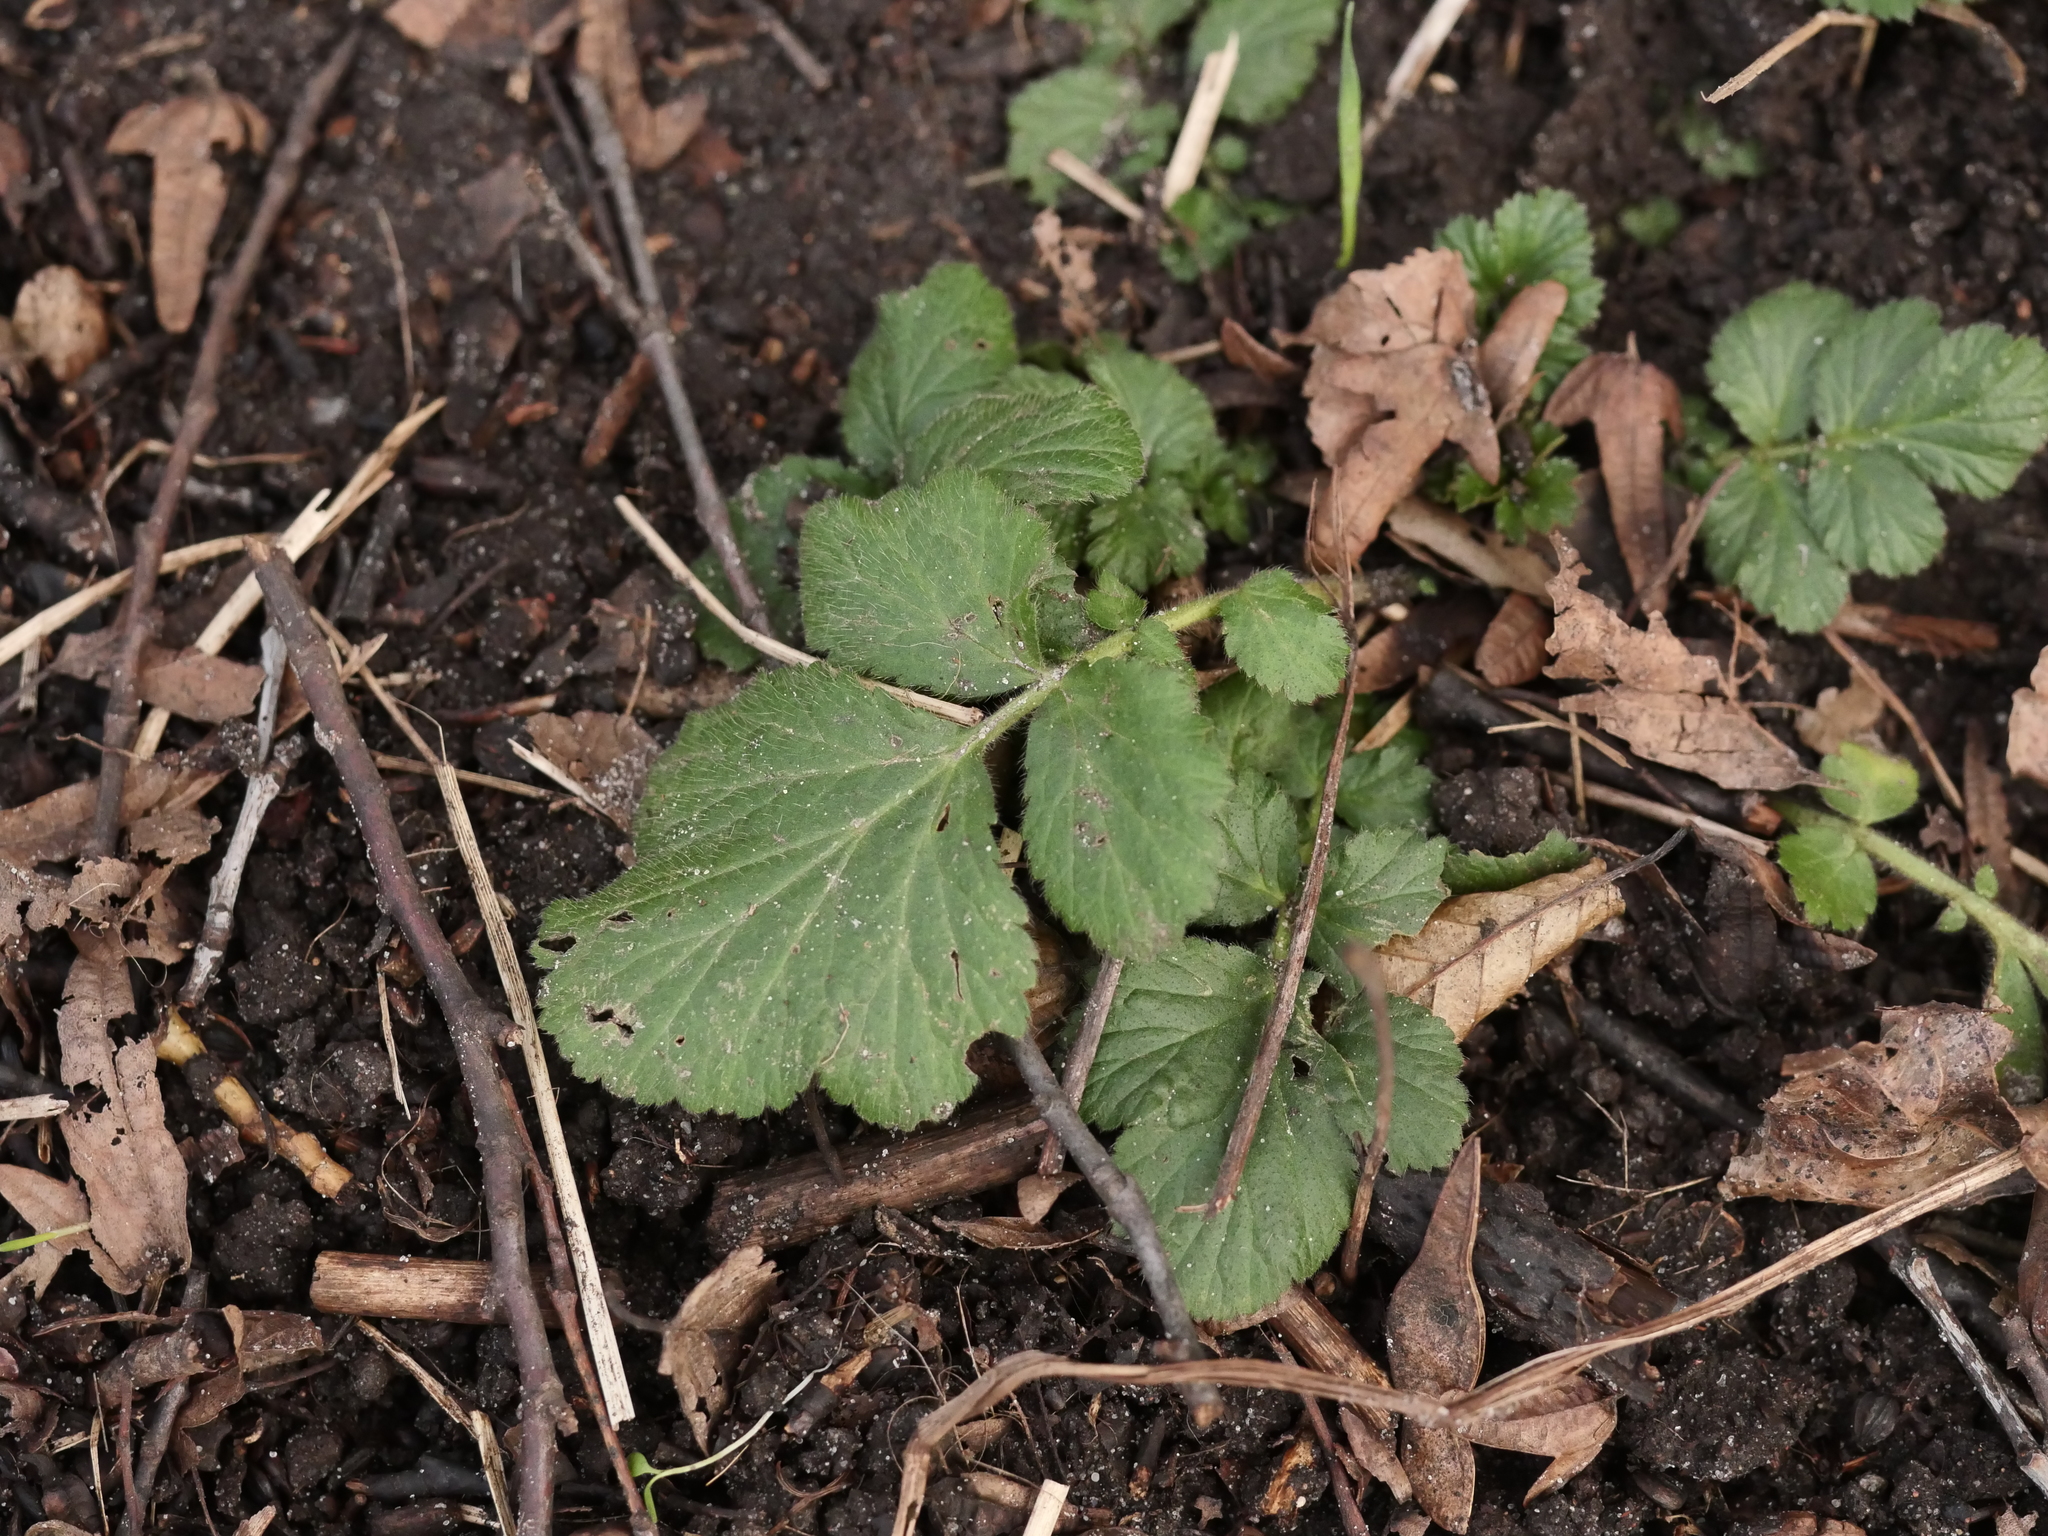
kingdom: Plantae
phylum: Tracheophyta
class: Magnoliopsida
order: Rosales
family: Rosaceae
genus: Geum
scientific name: Geum urbanum
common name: Wood avens
